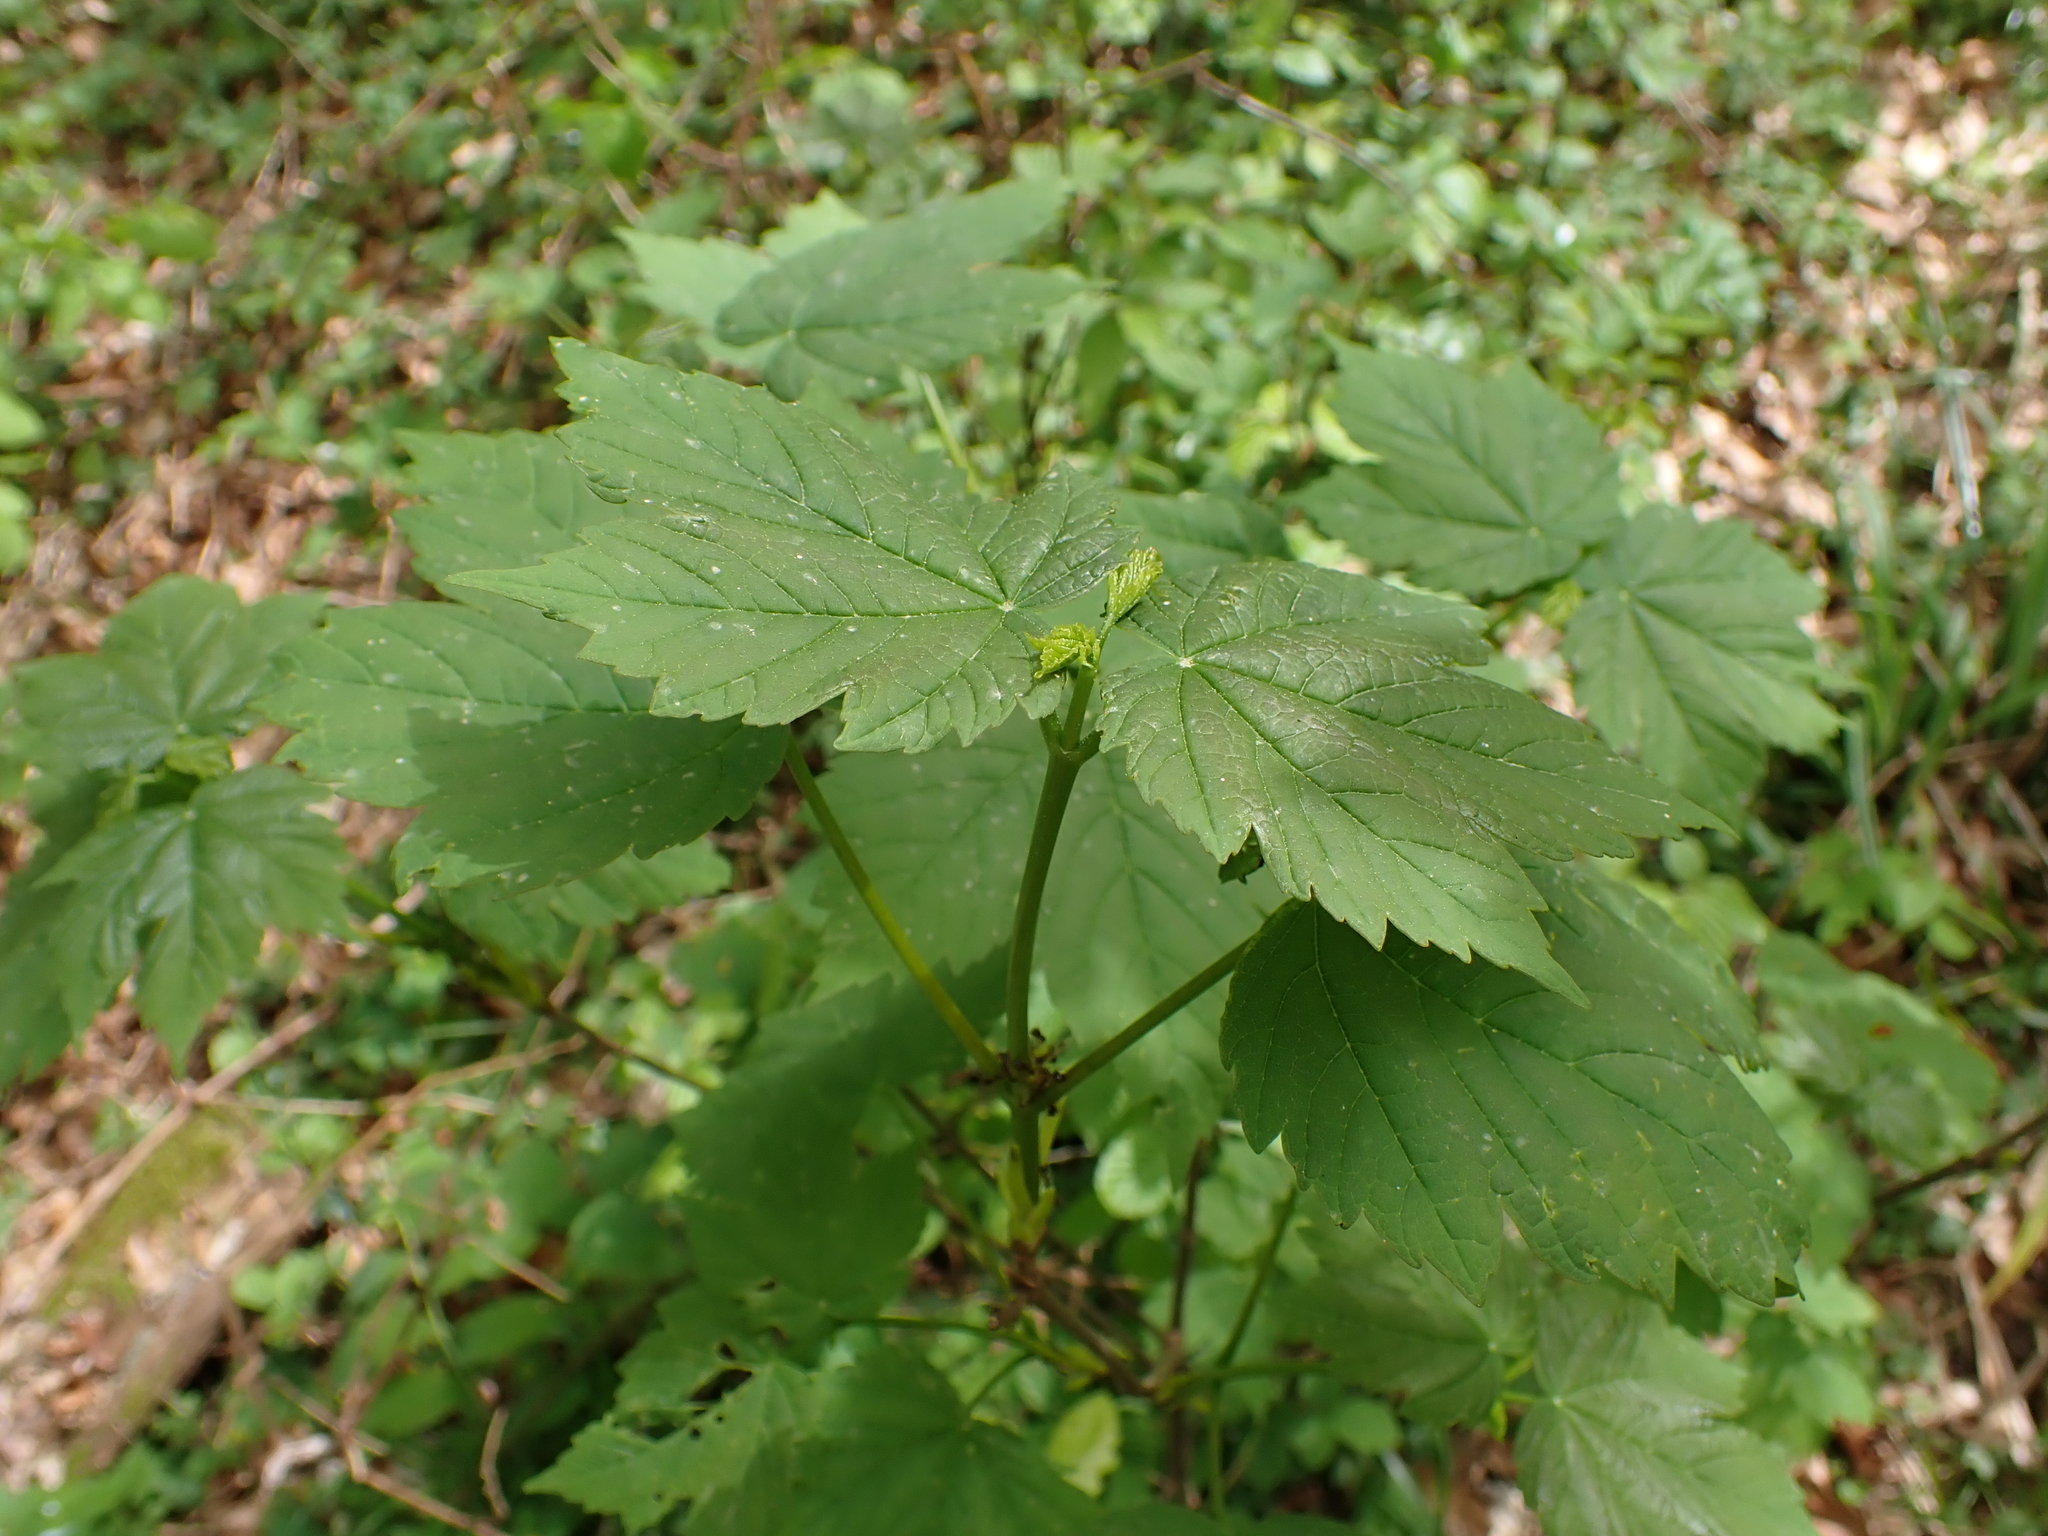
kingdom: Plantae
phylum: Tracheophyta
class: Magnoliopsida
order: Sapindales
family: Sapindaceae
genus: Acer
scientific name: Acer pseudoplatanus
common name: Sycamore
